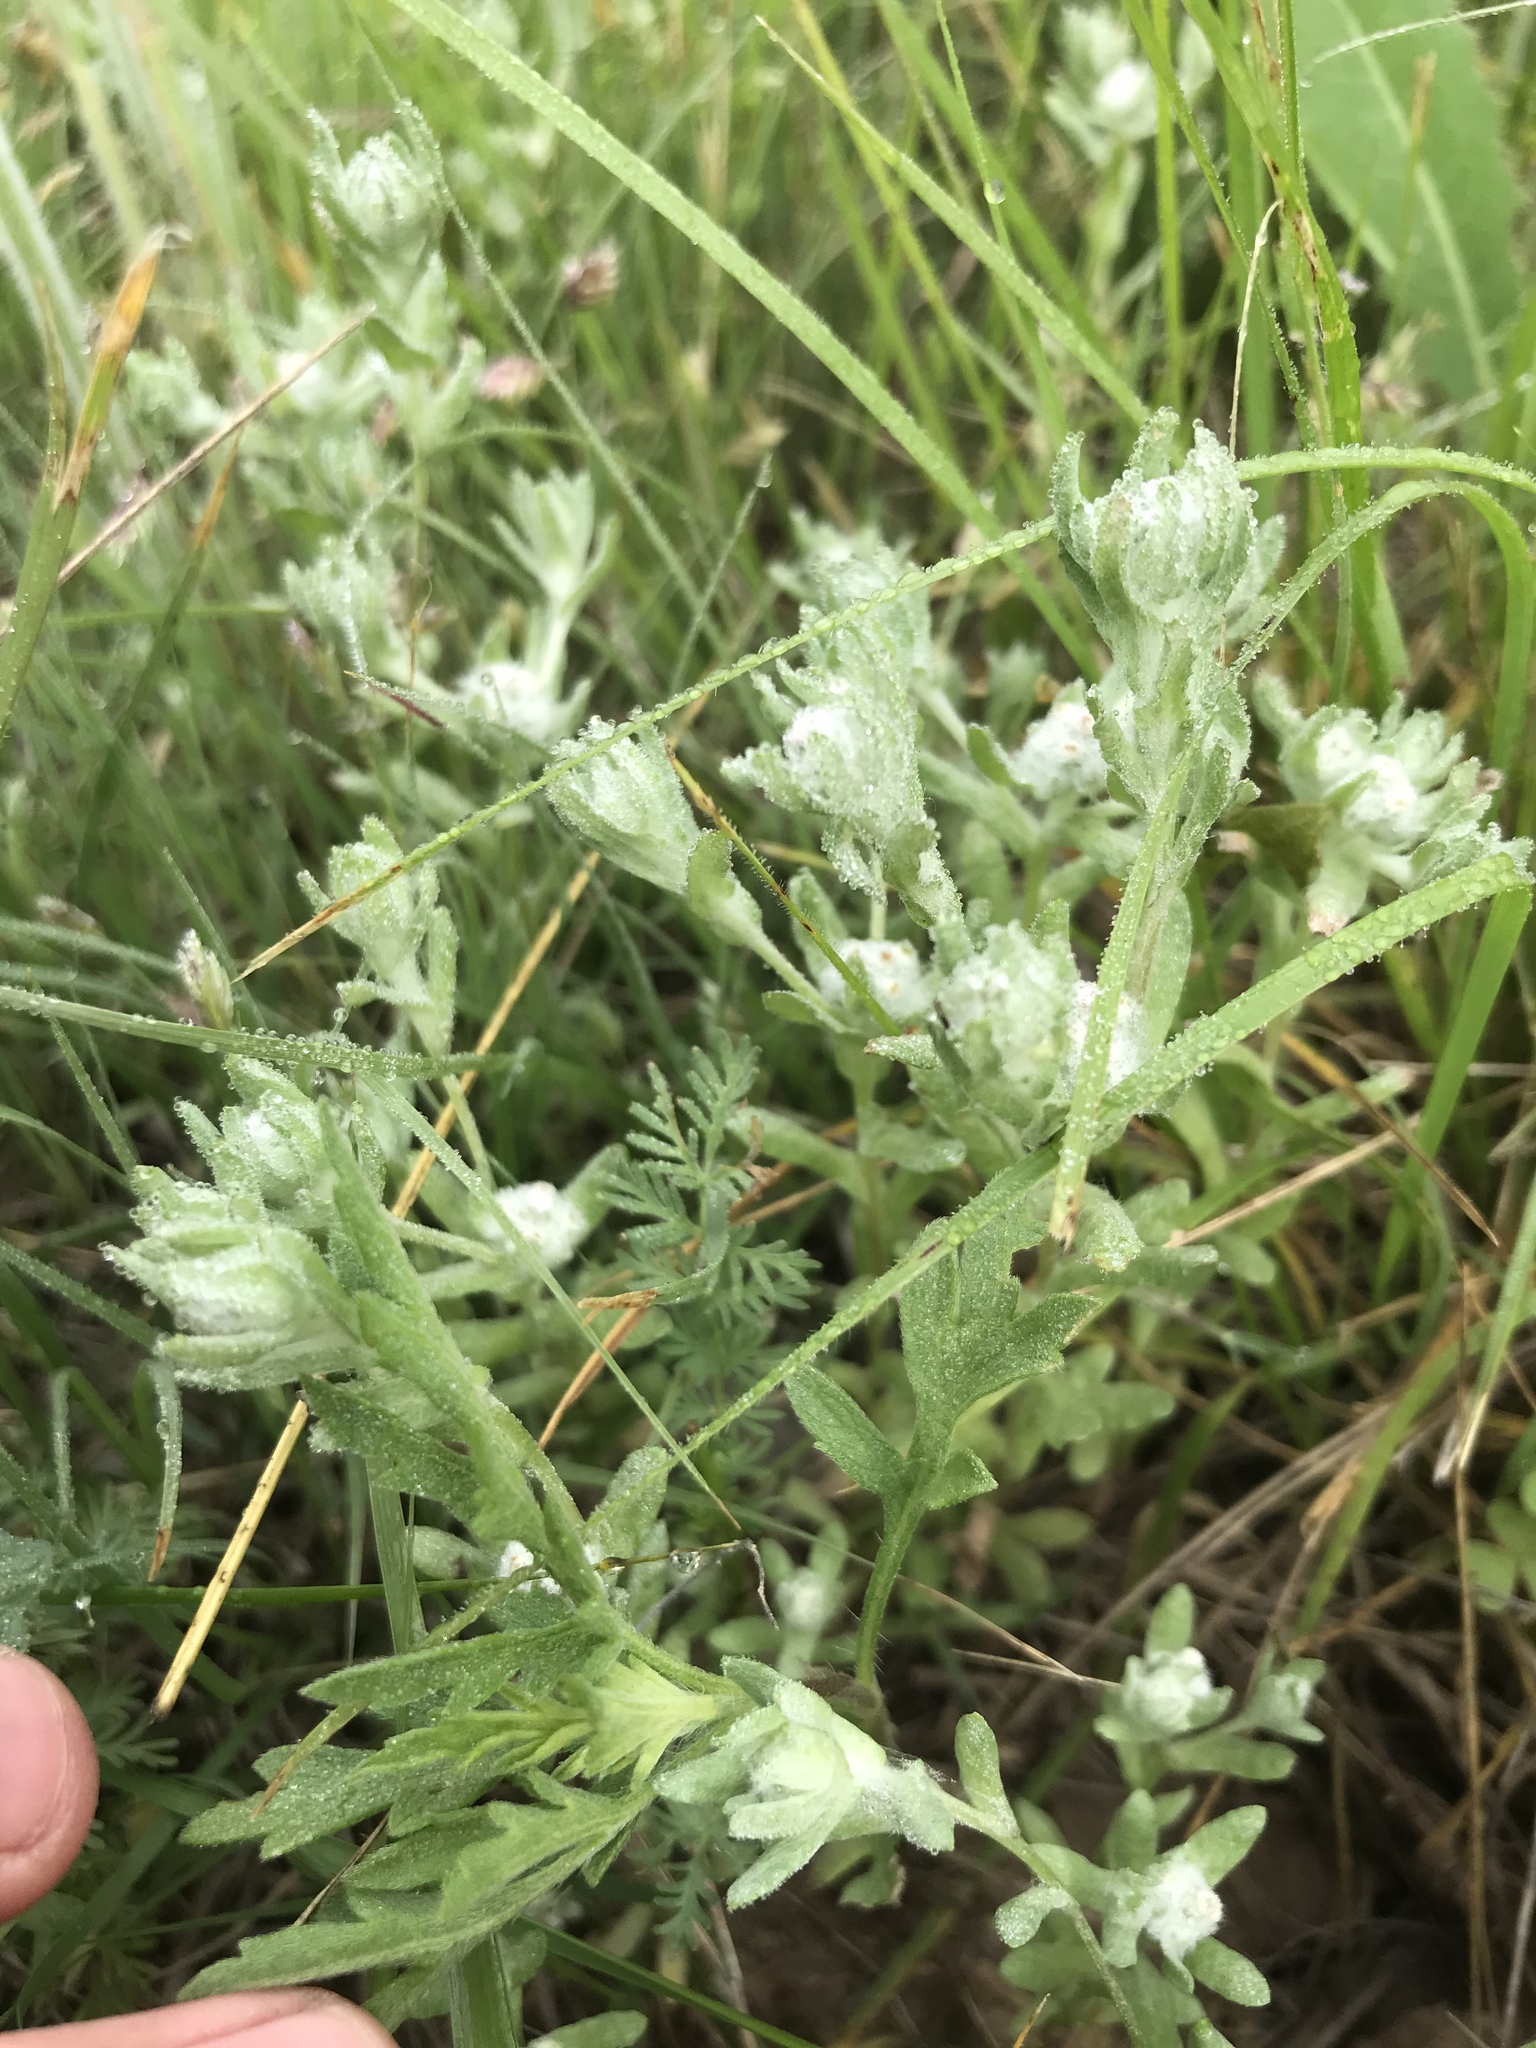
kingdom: Plantae
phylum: Tracheophyta
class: Magnoliopsida
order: Asterales
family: Asteraceae
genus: Diaperia
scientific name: Diaperia verna
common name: Many-stem rabbit-tobacco
